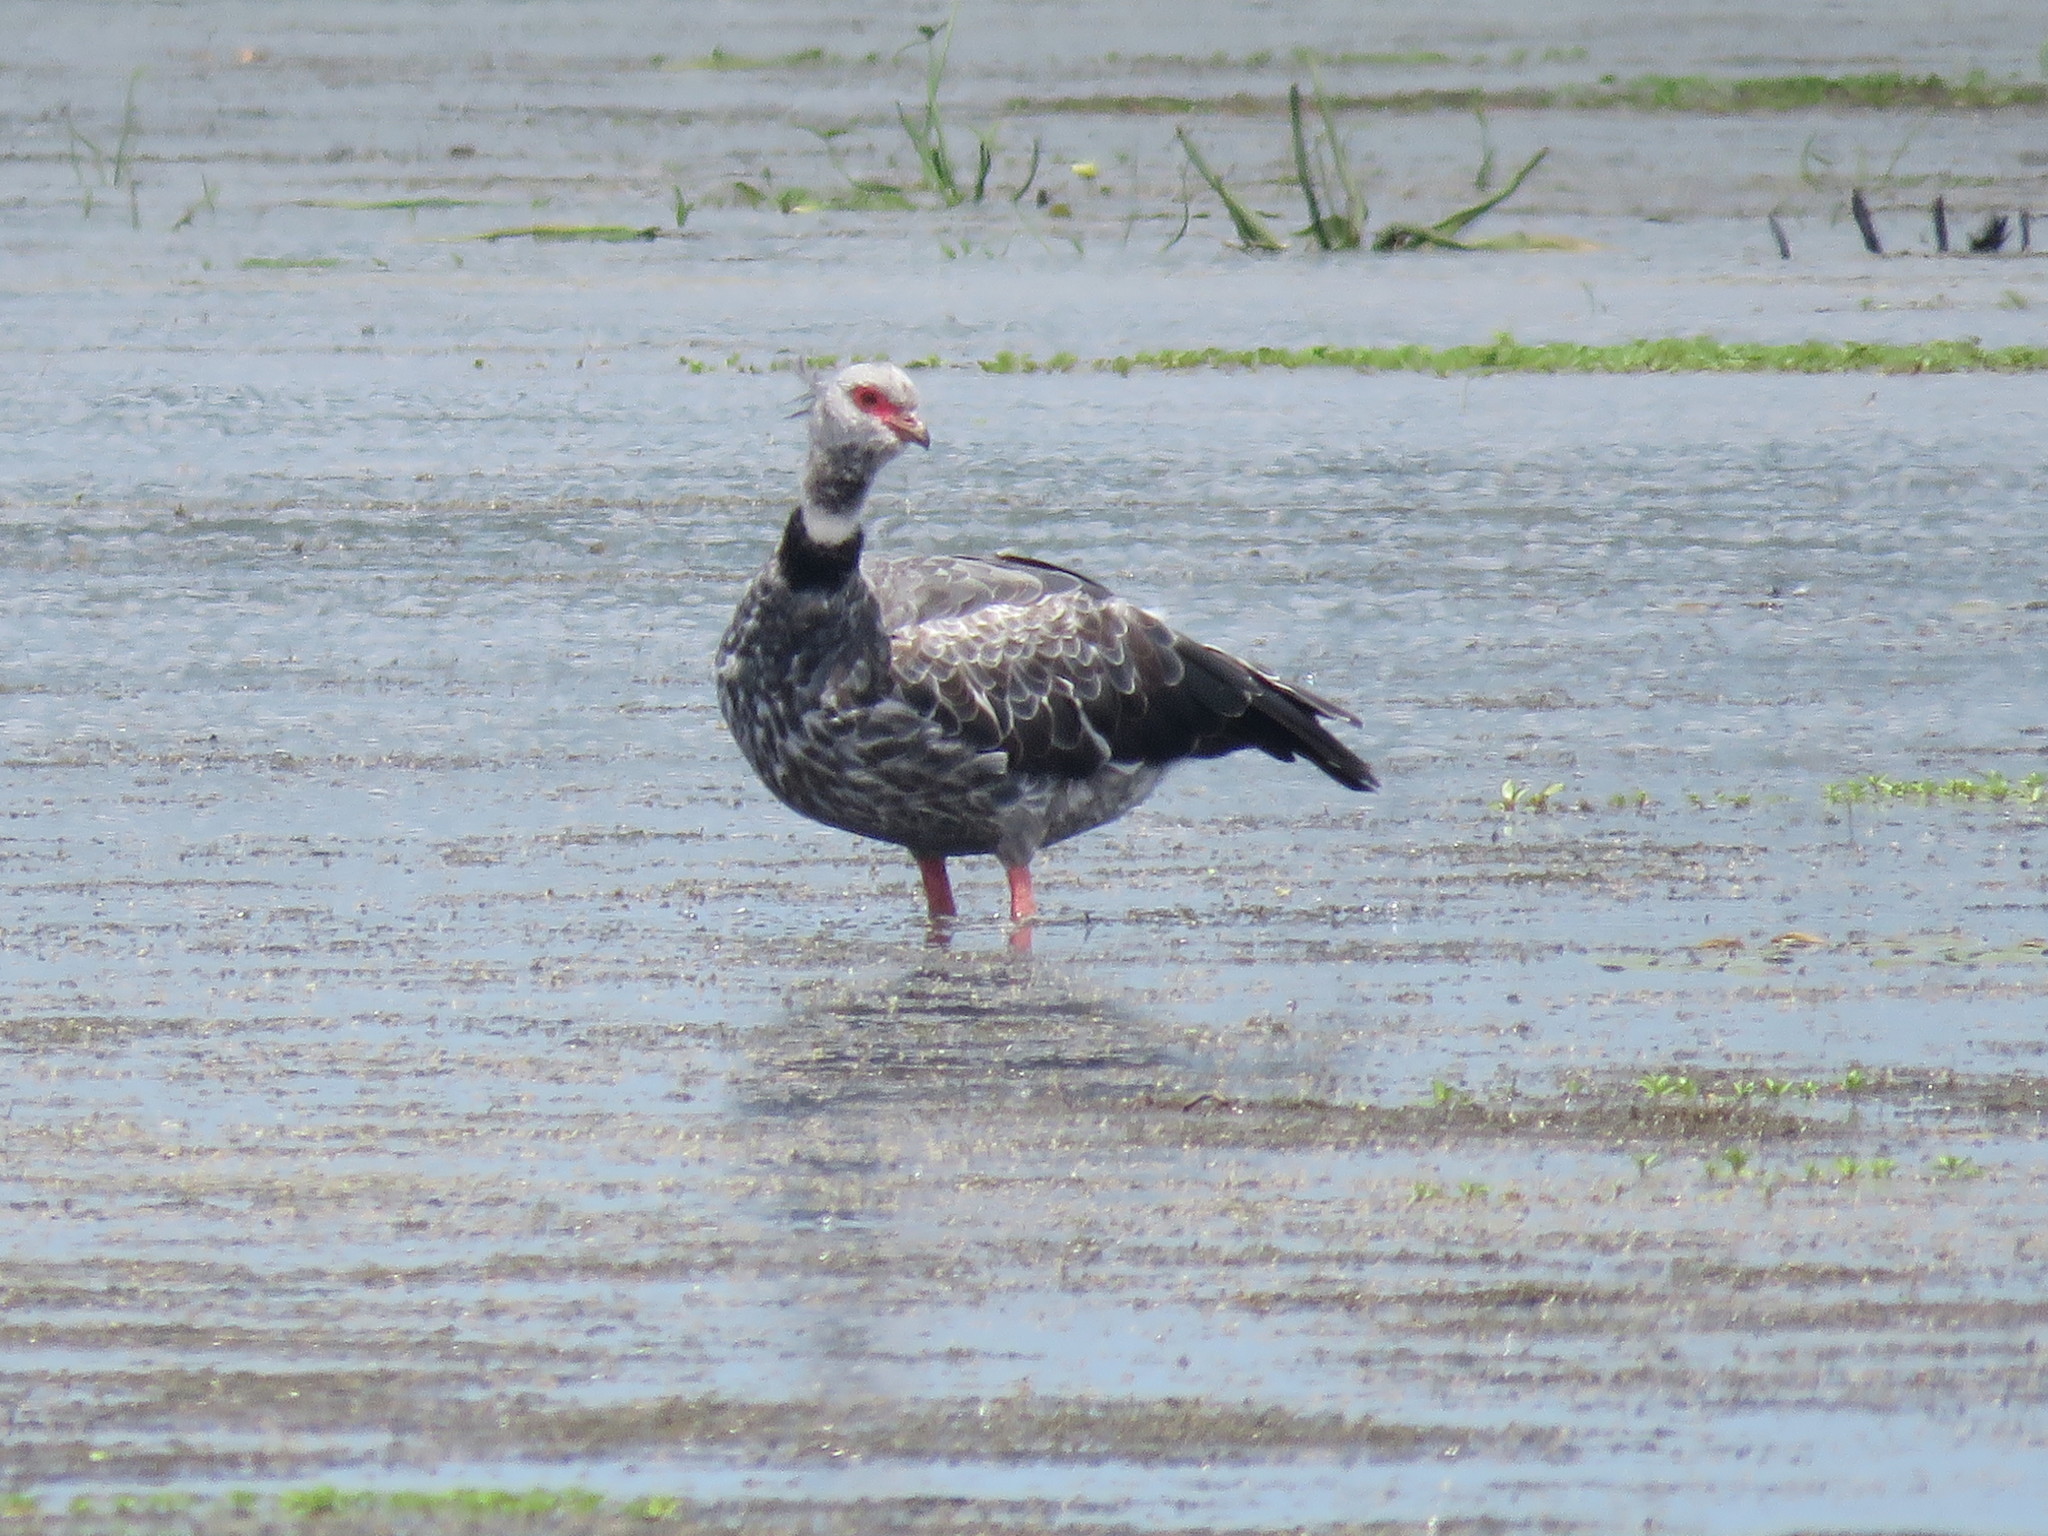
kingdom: Animalia
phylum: Chordata
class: Aves
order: Anseriformes
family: Anhimidae
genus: Chauna
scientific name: Chauna torquata
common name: Southern screamer
